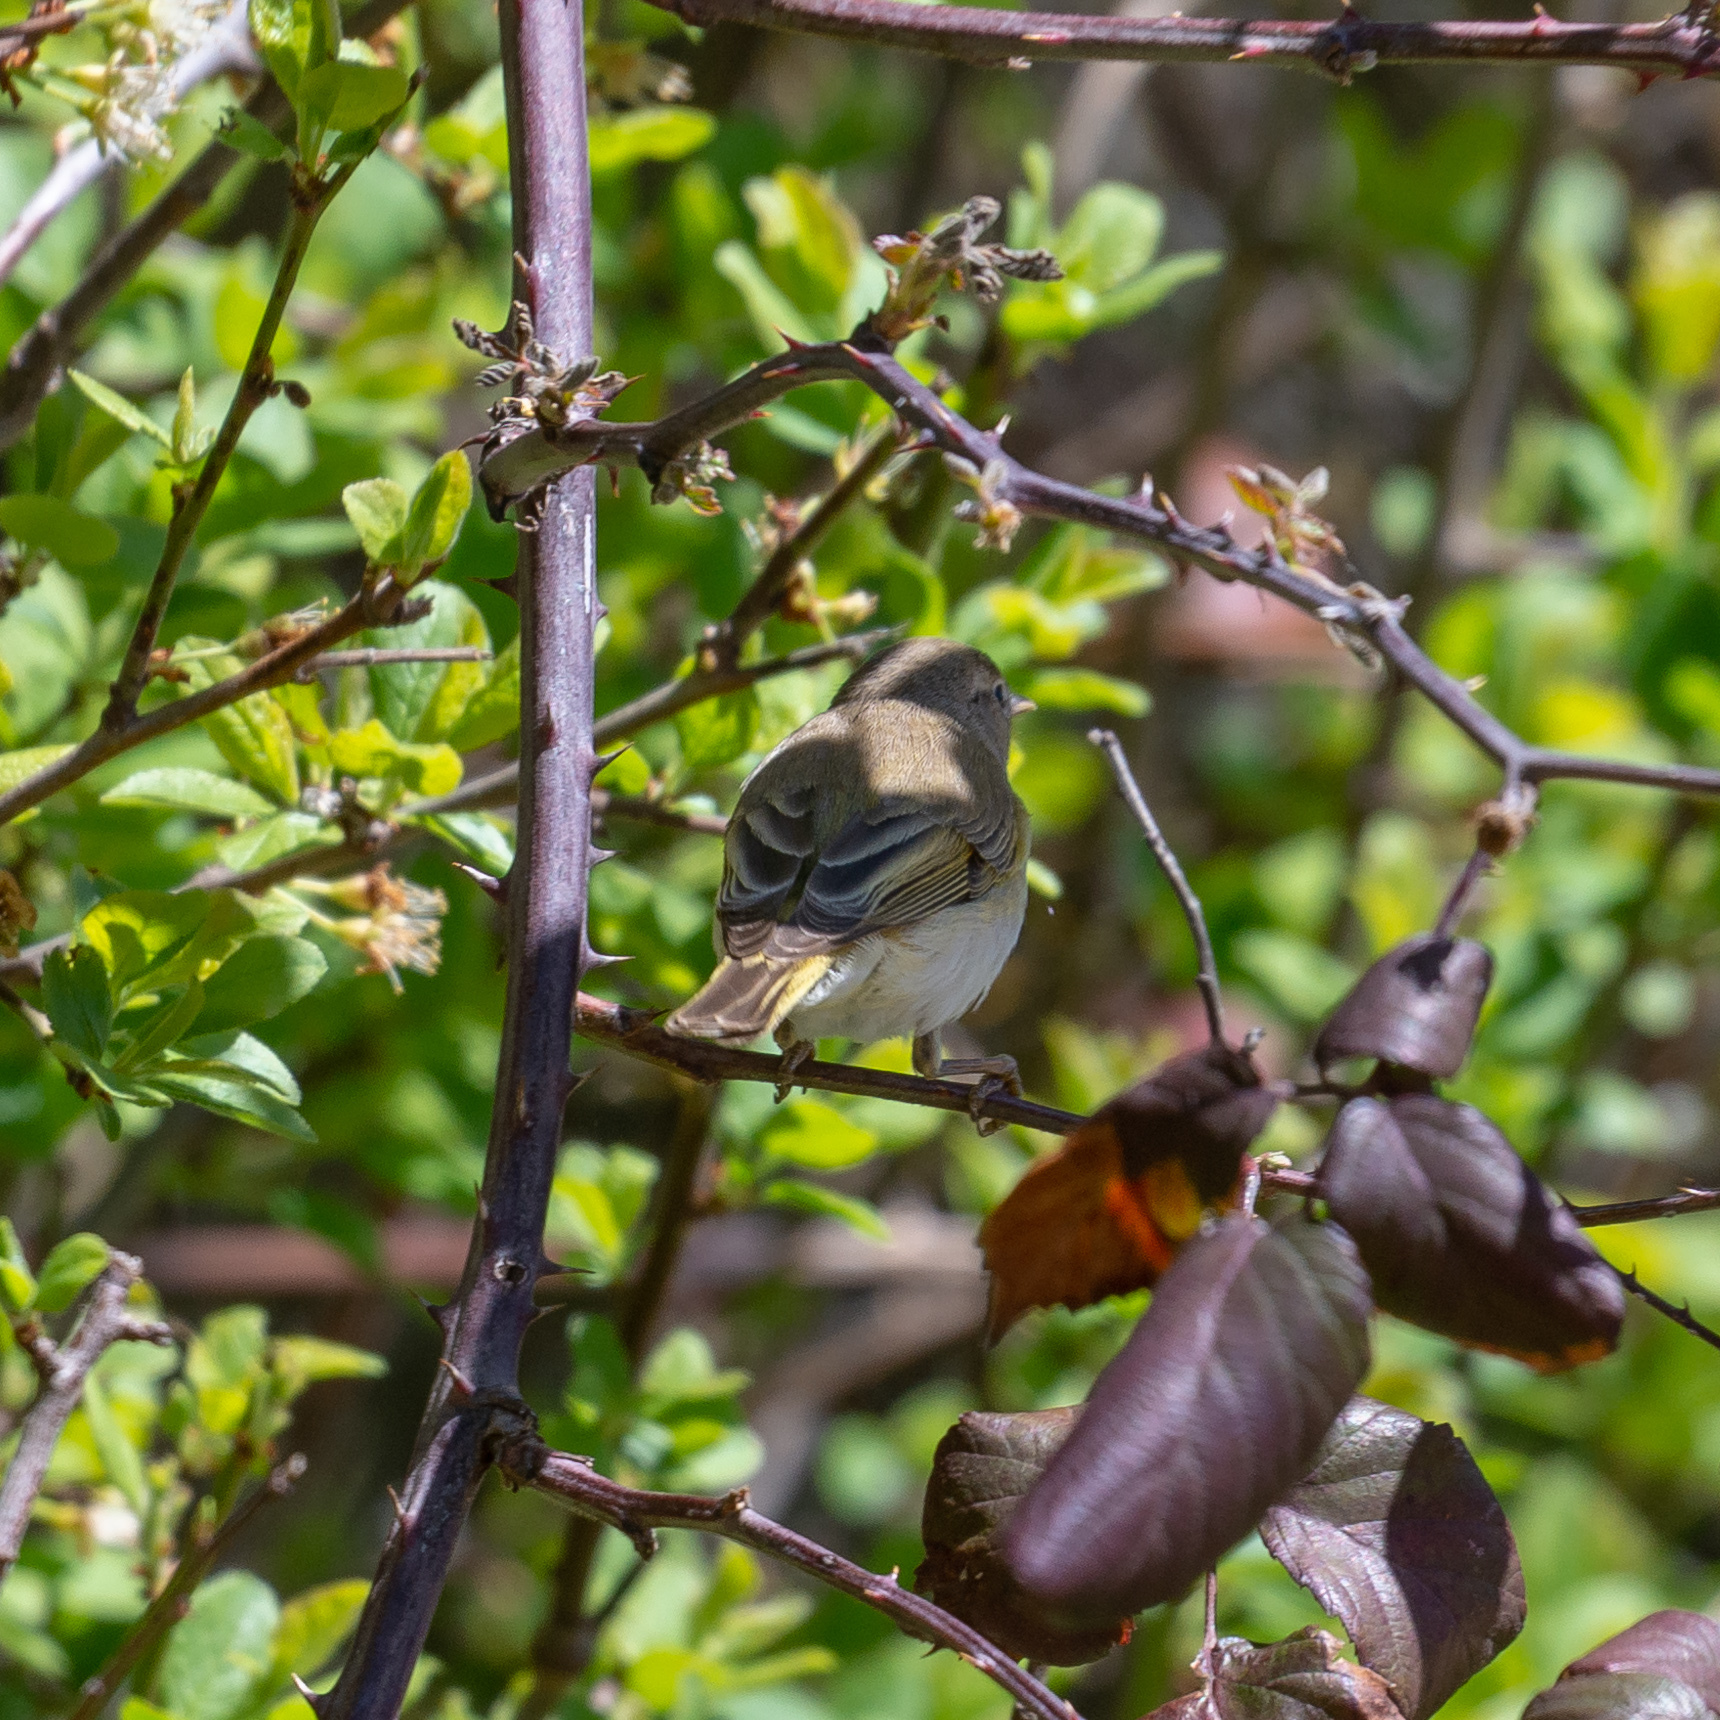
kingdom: Animalia
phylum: Chordata
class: Aves
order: Passeriformes
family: Phylloscopidae
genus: Phylloscopus
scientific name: Phylloscopus bonelli
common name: Western bonelli's warbler
